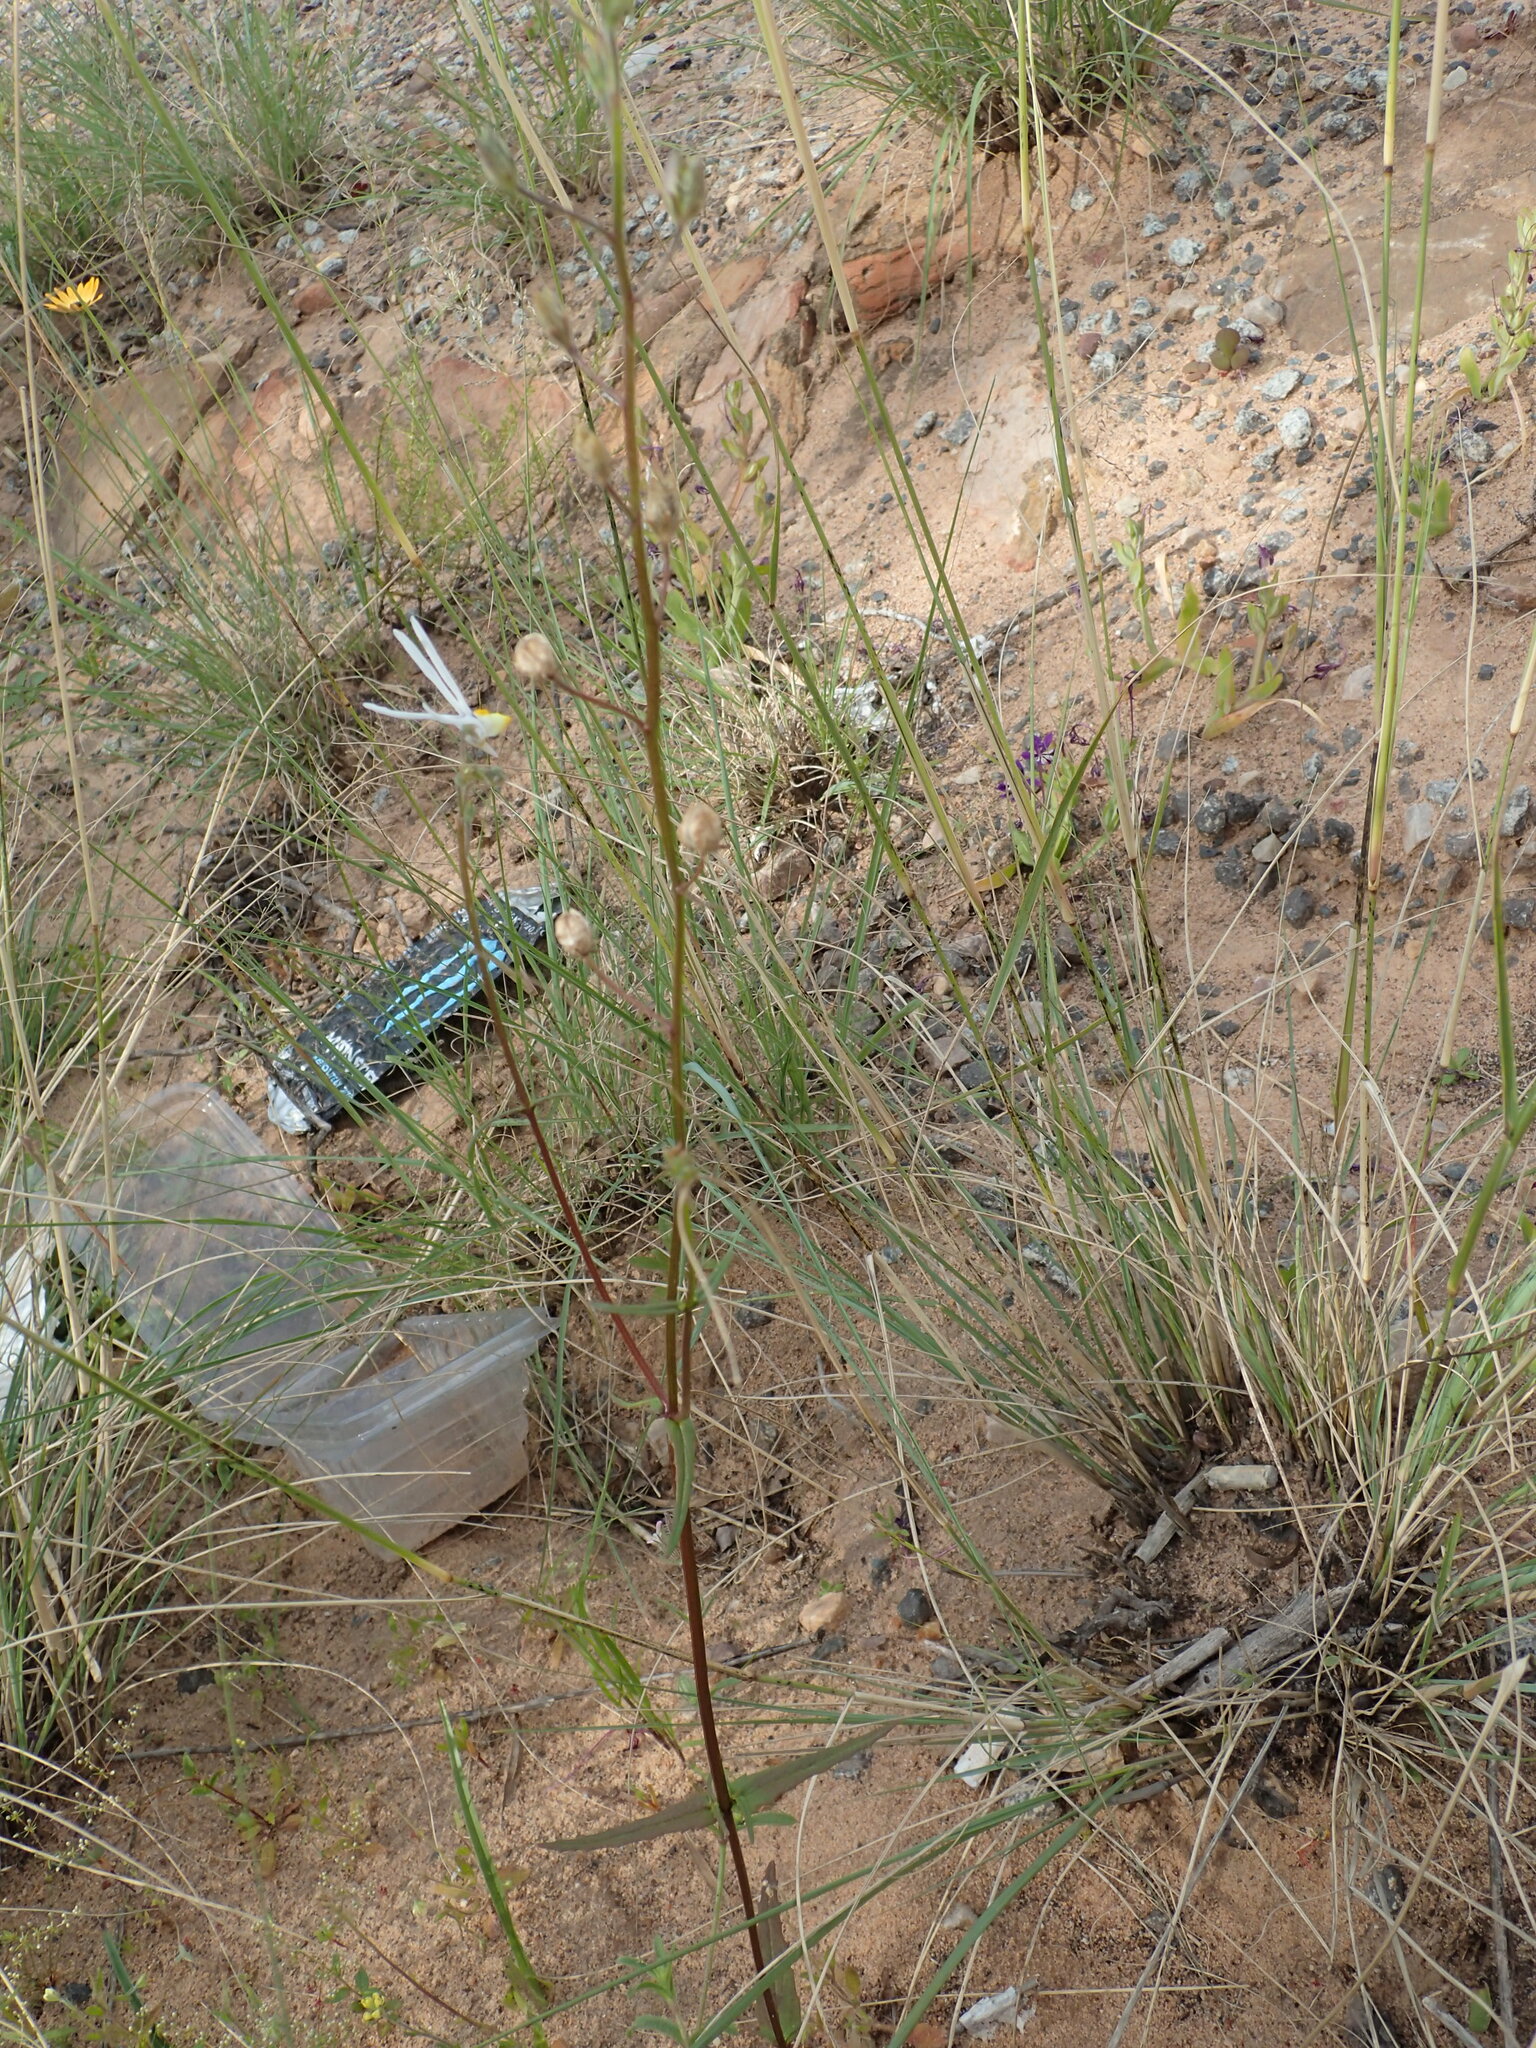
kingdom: Plantae
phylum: Tracheophyta
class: Magnoliopsida
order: Lamiales
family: Scrophulariaceae
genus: Nemesia
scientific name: Nemesia cheiranthus
